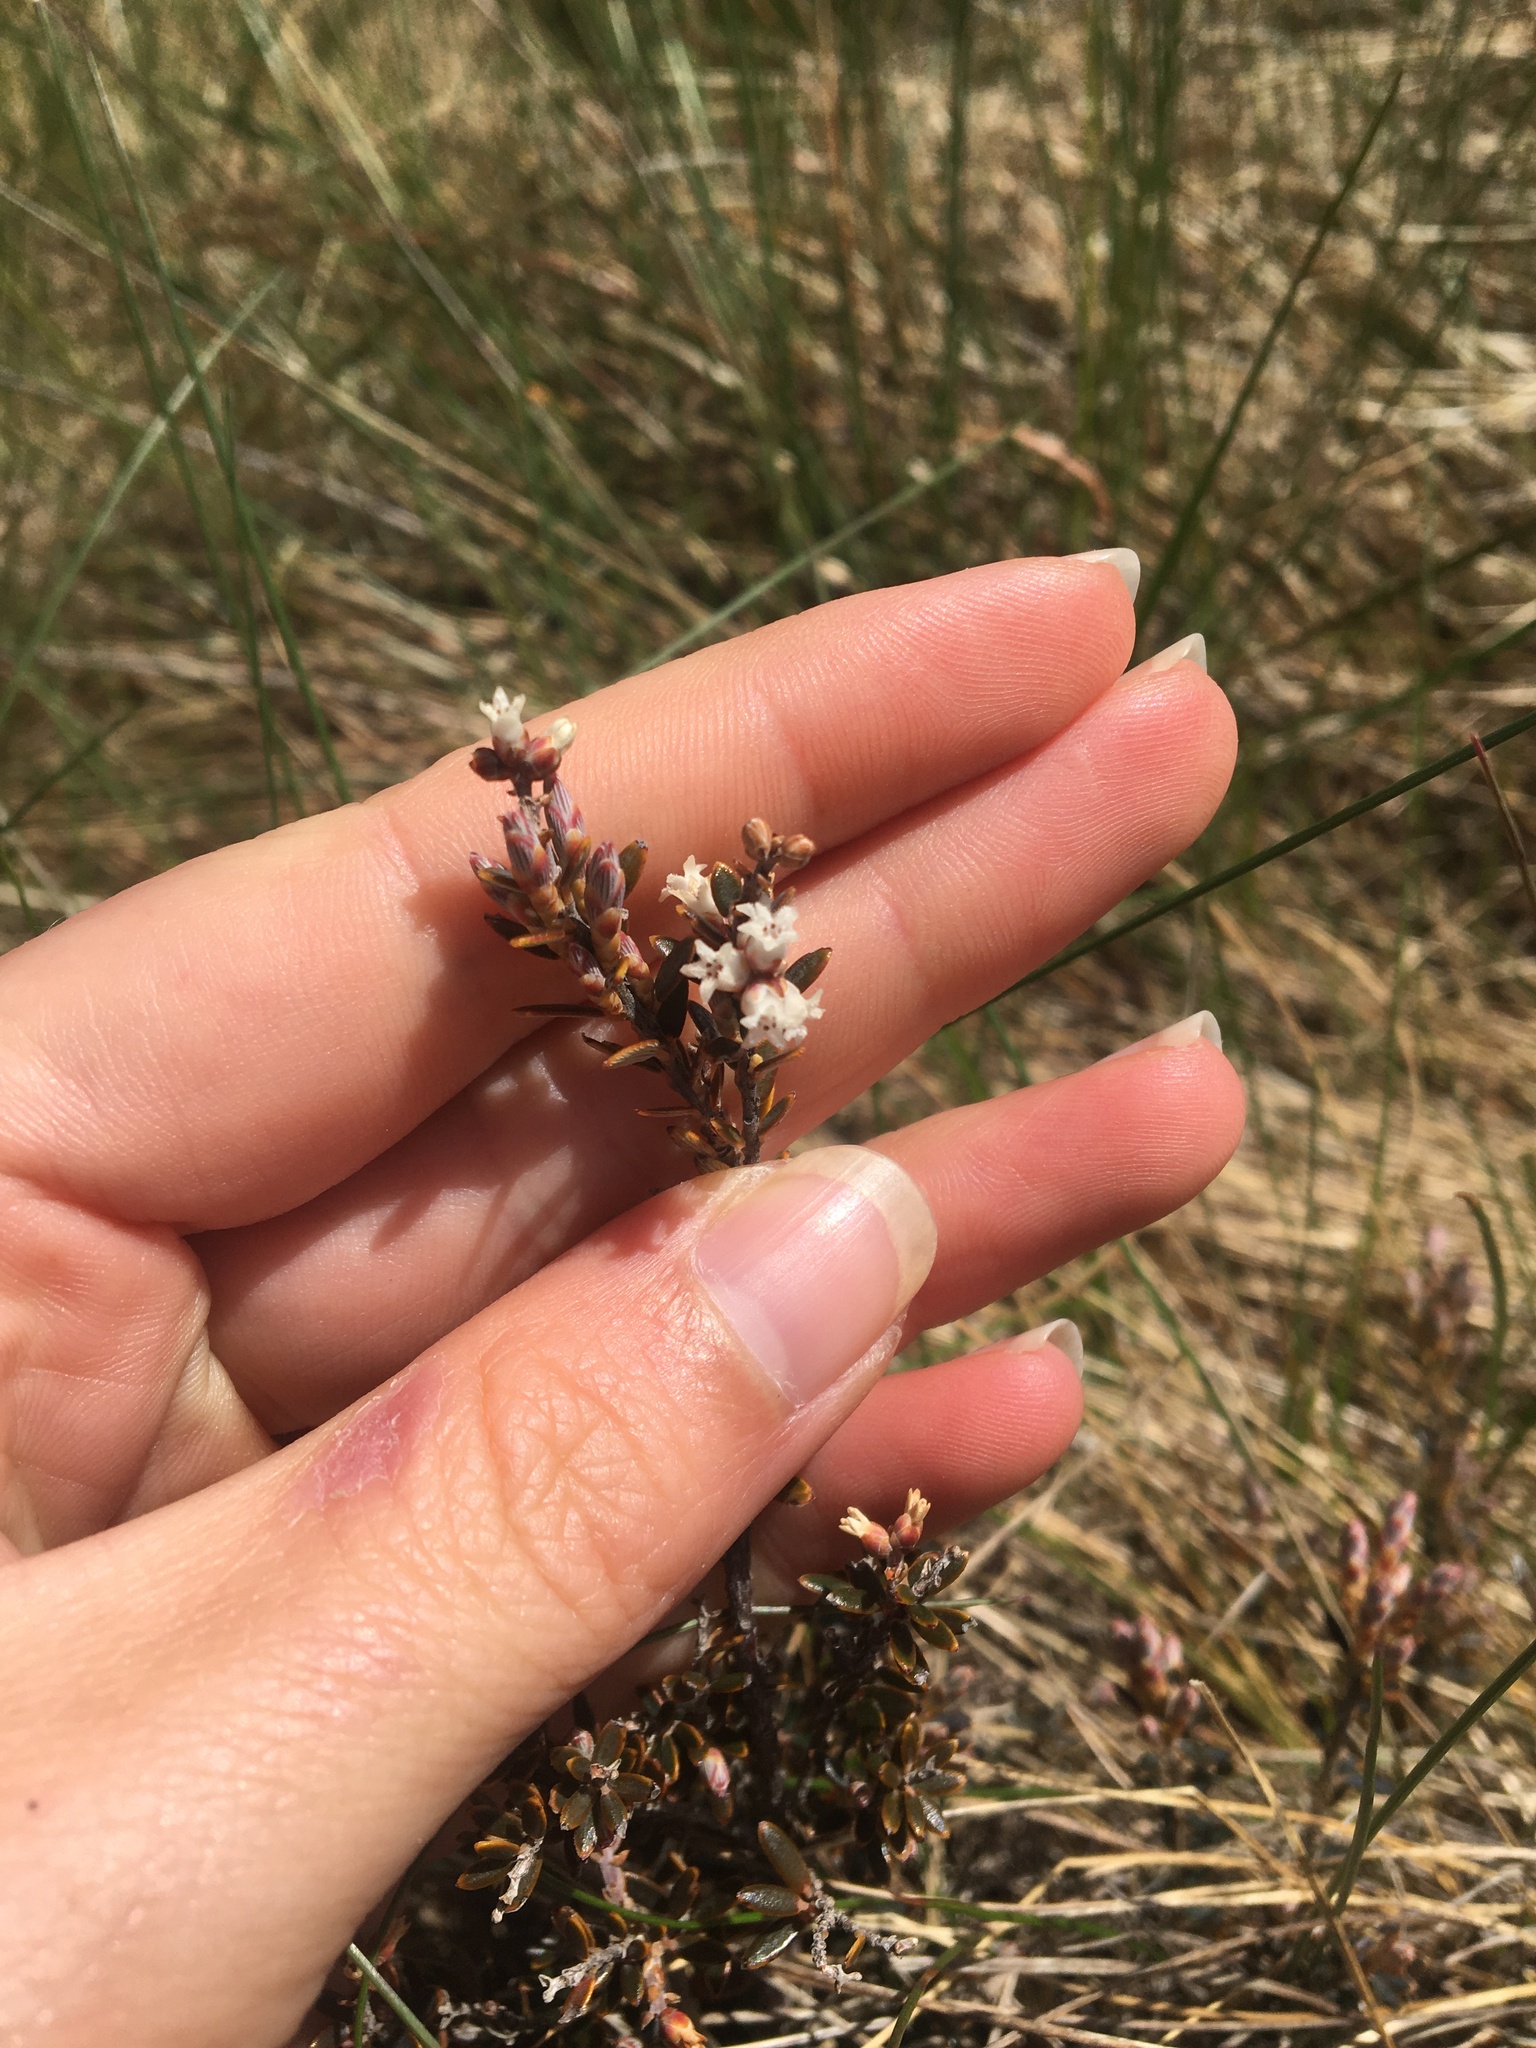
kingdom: Plantae
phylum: Tracheophyta
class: Magnoliopsida
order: Ericales
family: Ericaceae
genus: Acrothamnus
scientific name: Acrothamnus colensoi
